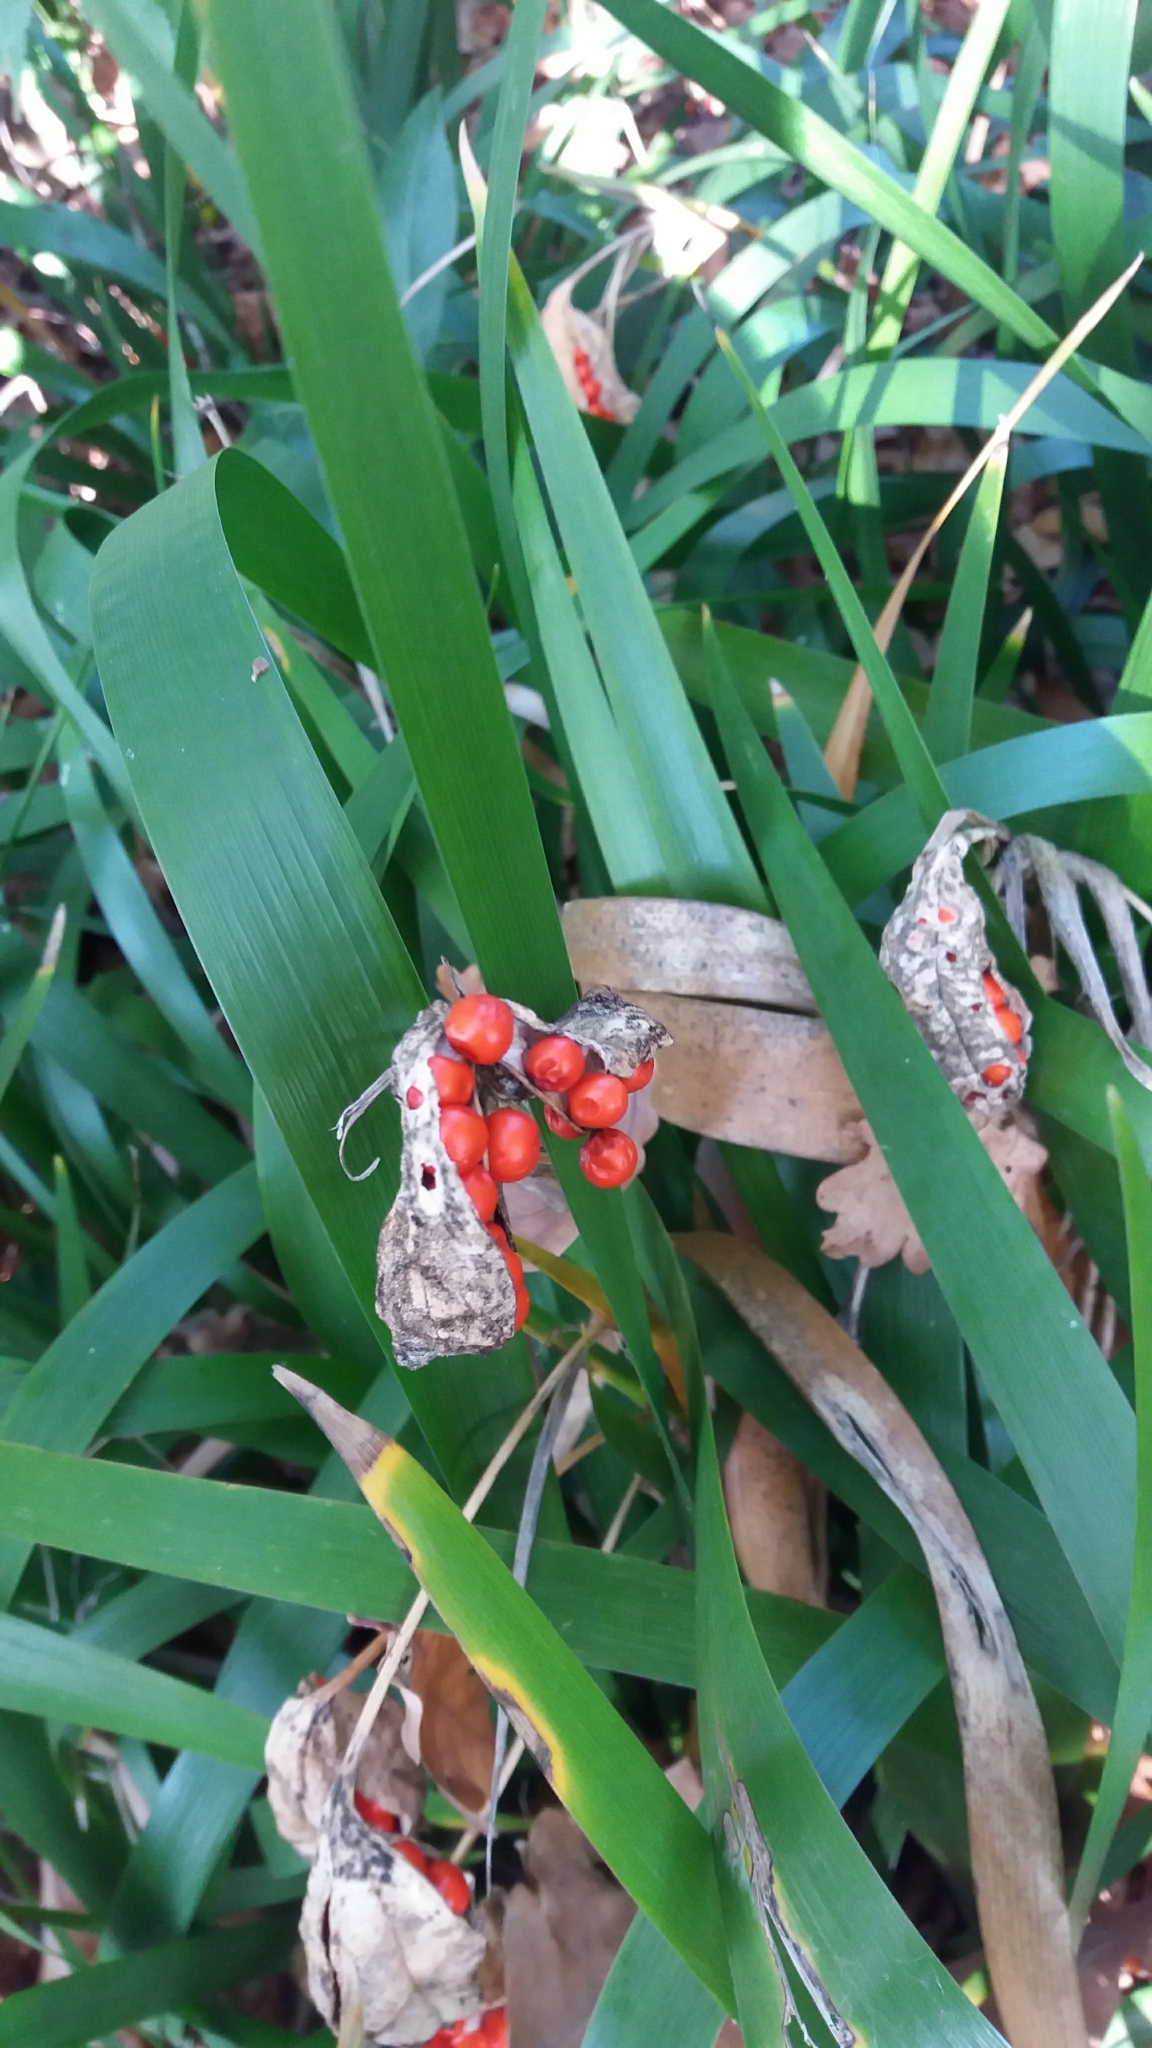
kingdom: Plantae
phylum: Tracheophyta
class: Liliopsida
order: Asparagales
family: Iridaceae
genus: Iris
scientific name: Iris foetidissima
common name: Stinking iris
